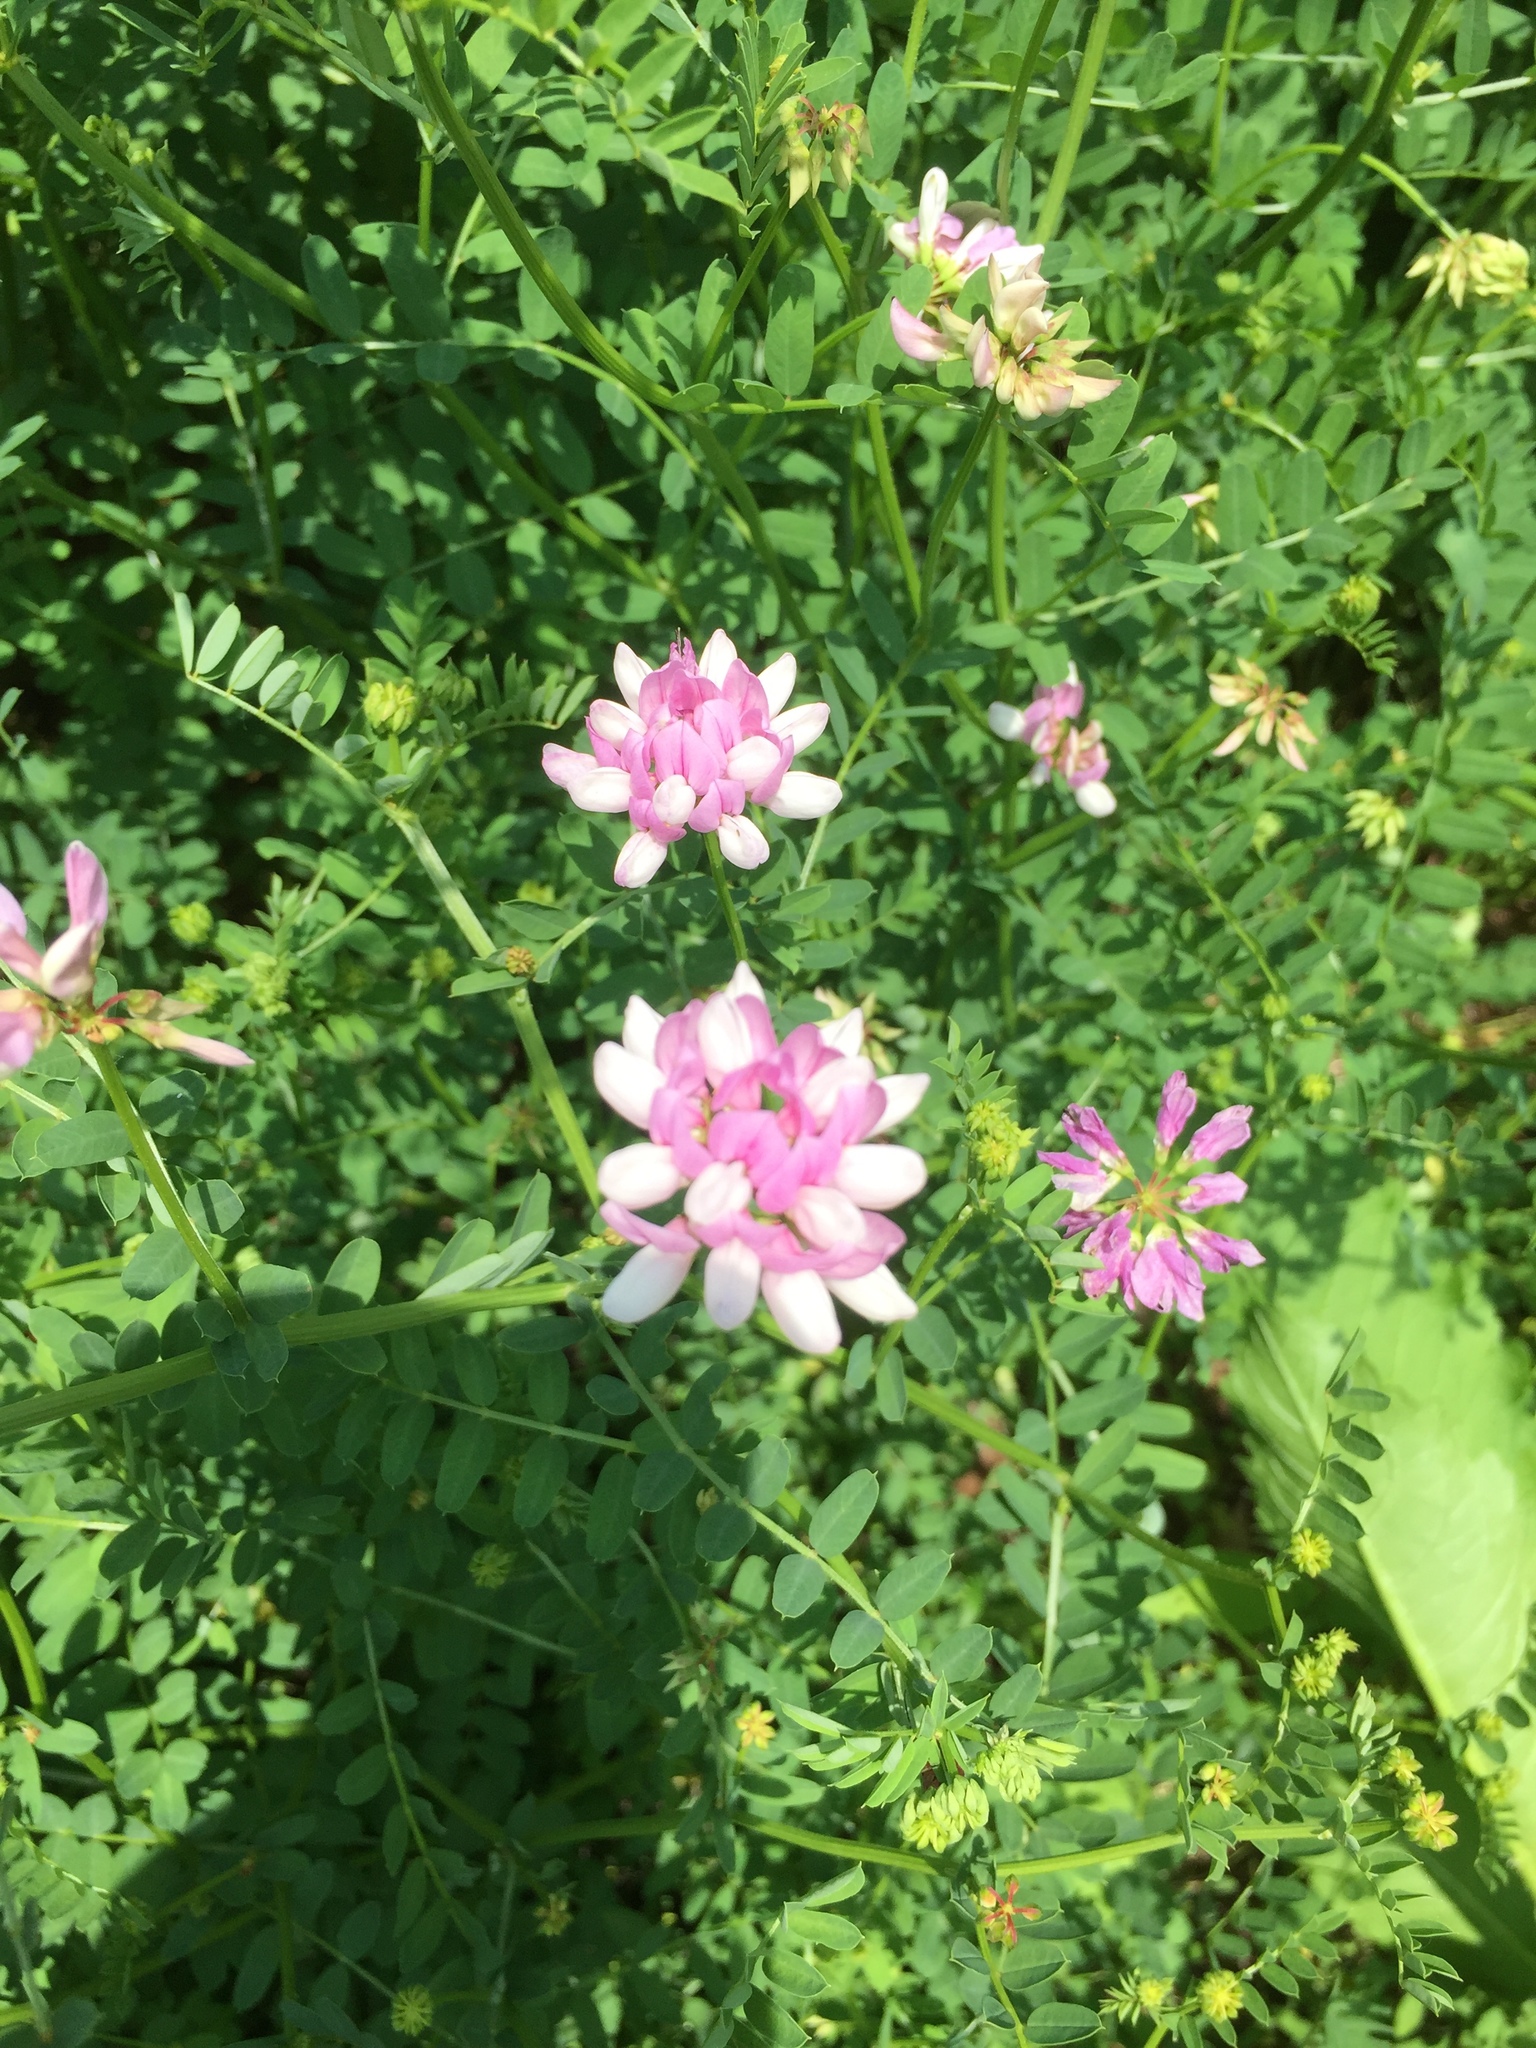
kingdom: Plantae
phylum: Tracheophyta
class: Magnoliopsida
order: Fabales
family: Fabaceae
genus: Coronilla
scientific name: Coronilla varia
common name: Crownvetch
